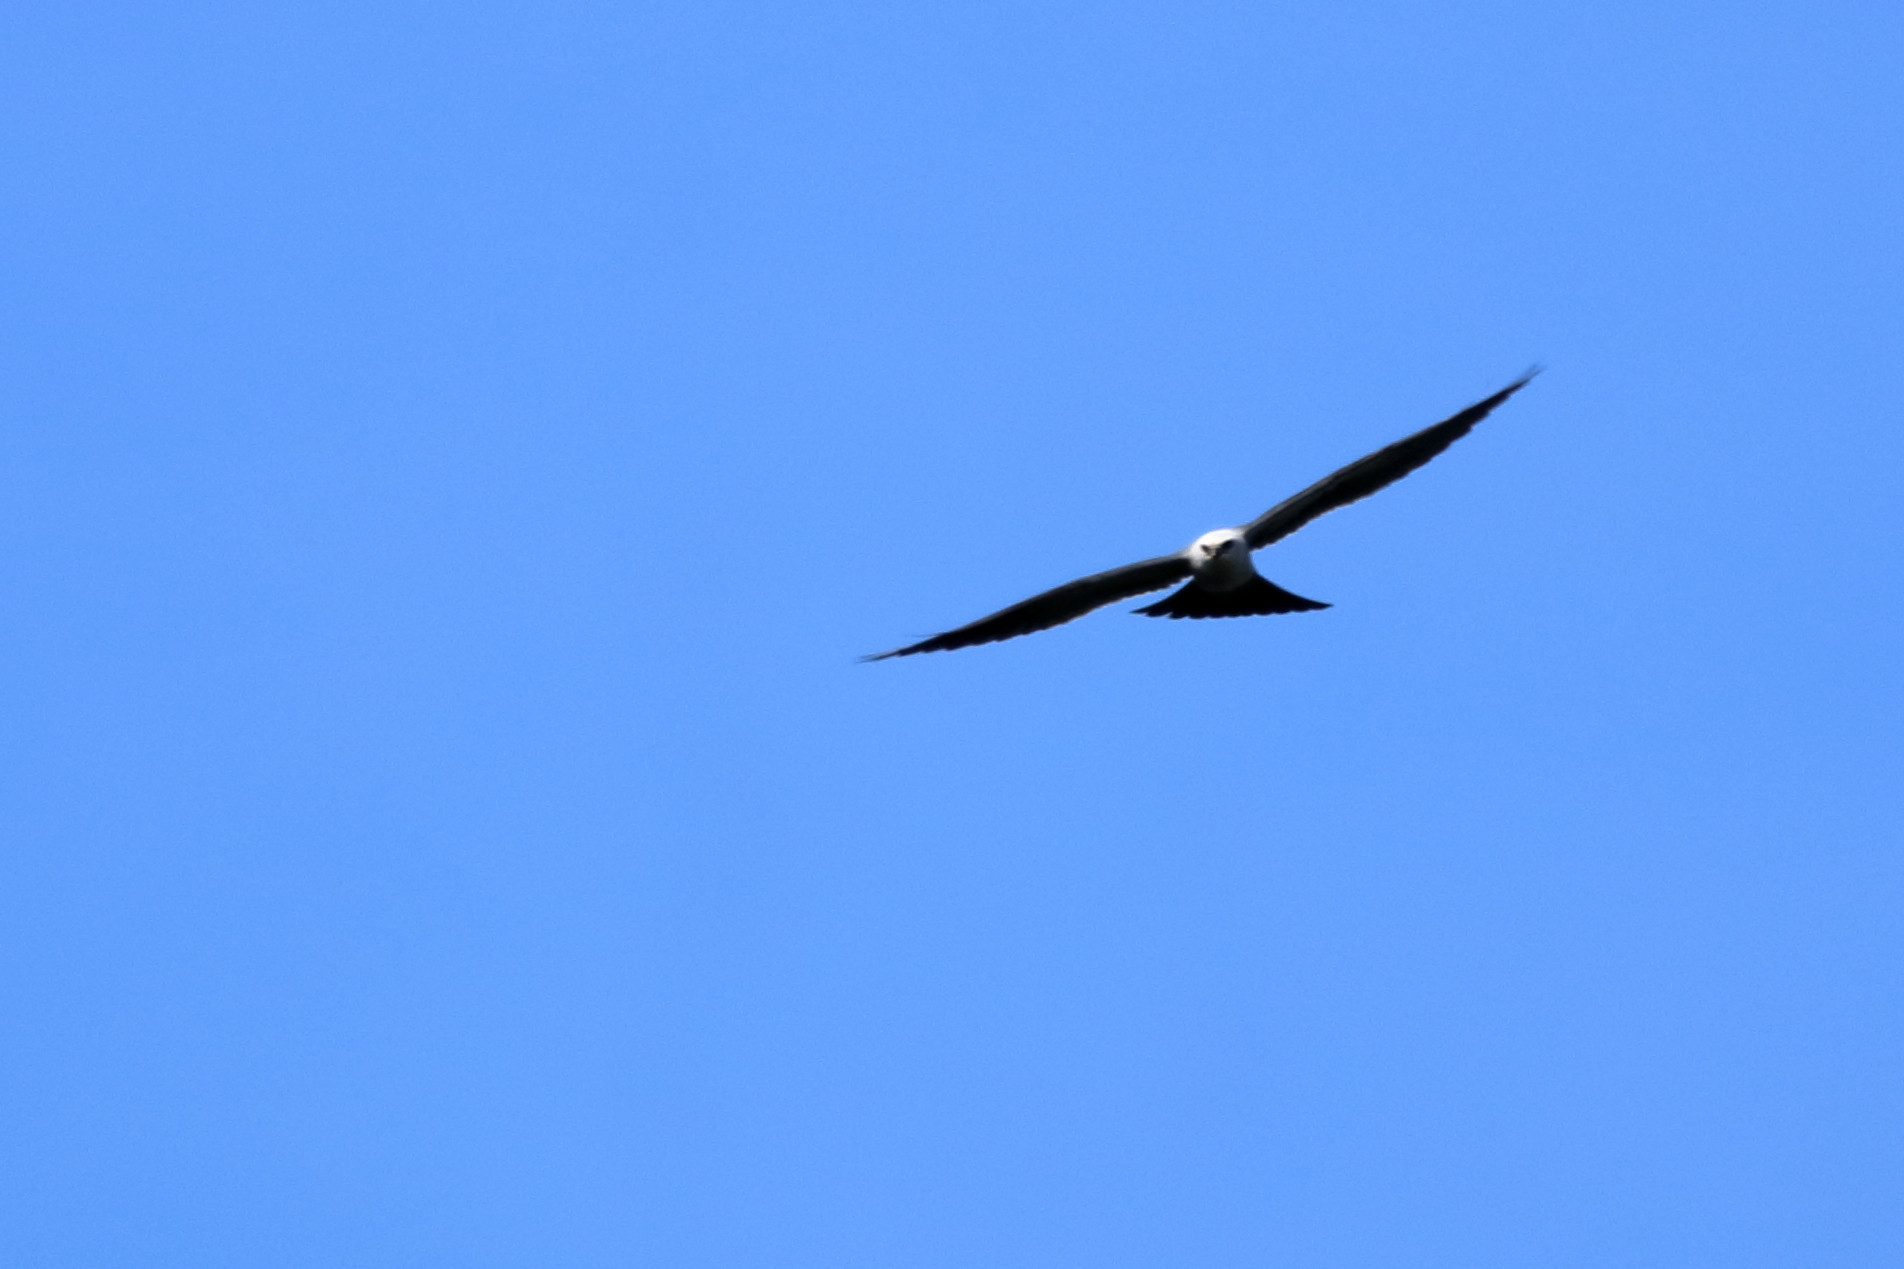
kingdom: Animalia
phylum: Chordata
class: Aves
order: Accipitriformes
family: Accipitridae
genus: Ictinia
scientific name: Ictinia mississippiensis
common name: Mississippi kite
